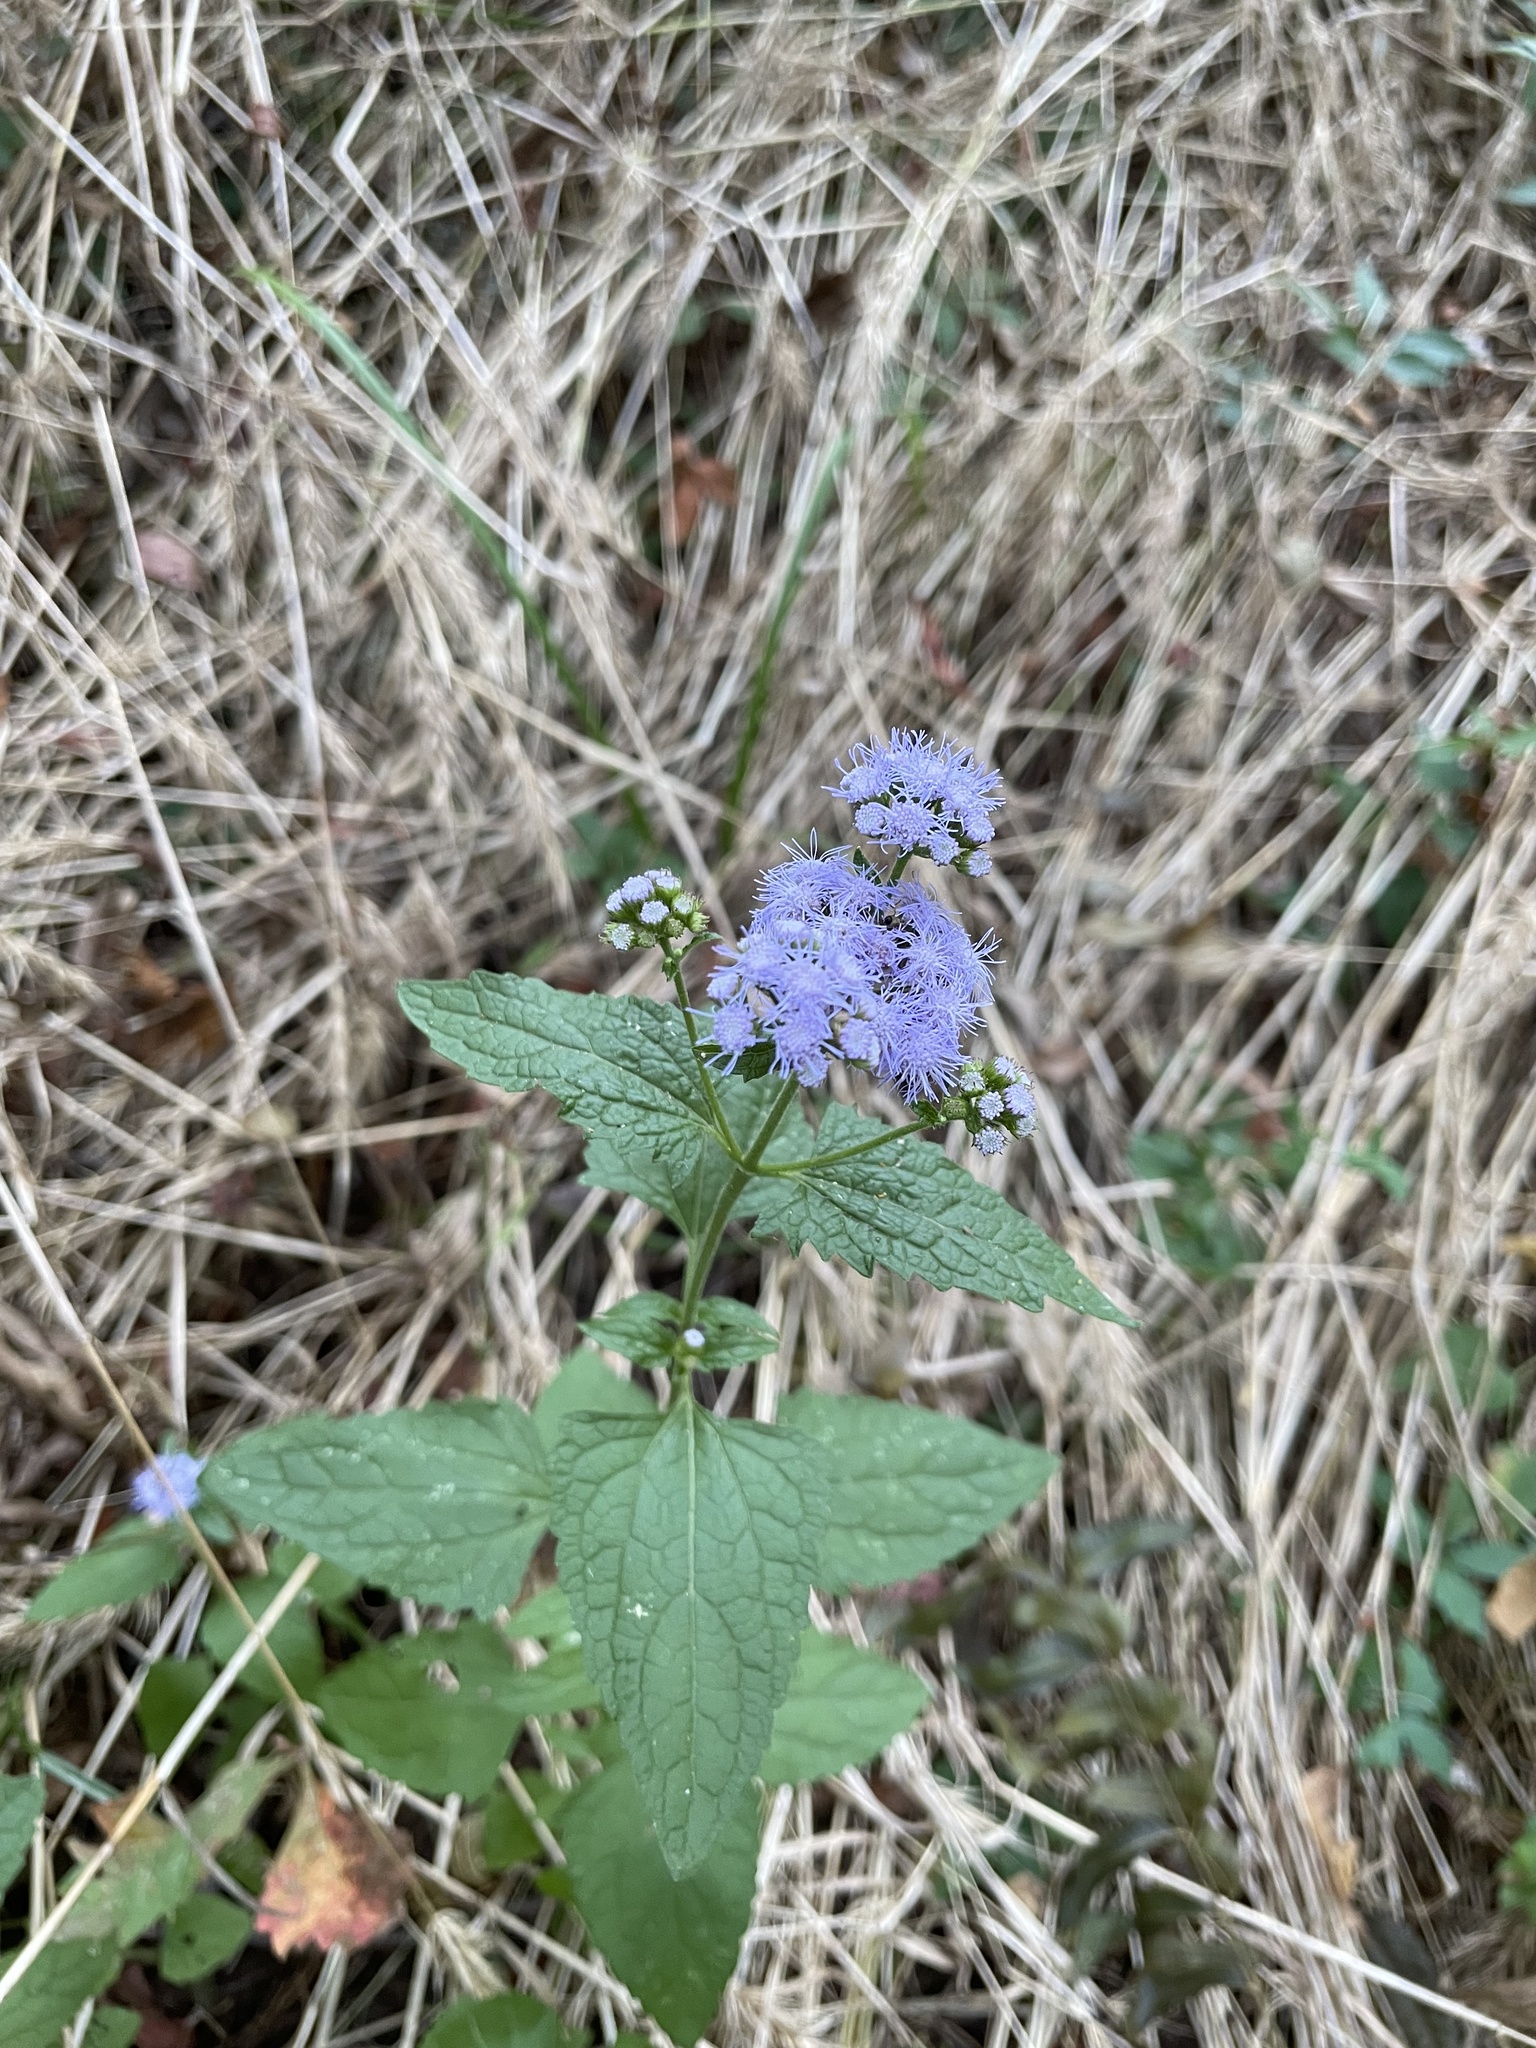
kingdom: Plantae
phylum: Tracheophyta
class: Magnoliopsida
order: Asterales
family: Asteraceae
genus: Conoclinium
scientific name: Conoclinium coelestinum
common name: Blue mistflower
